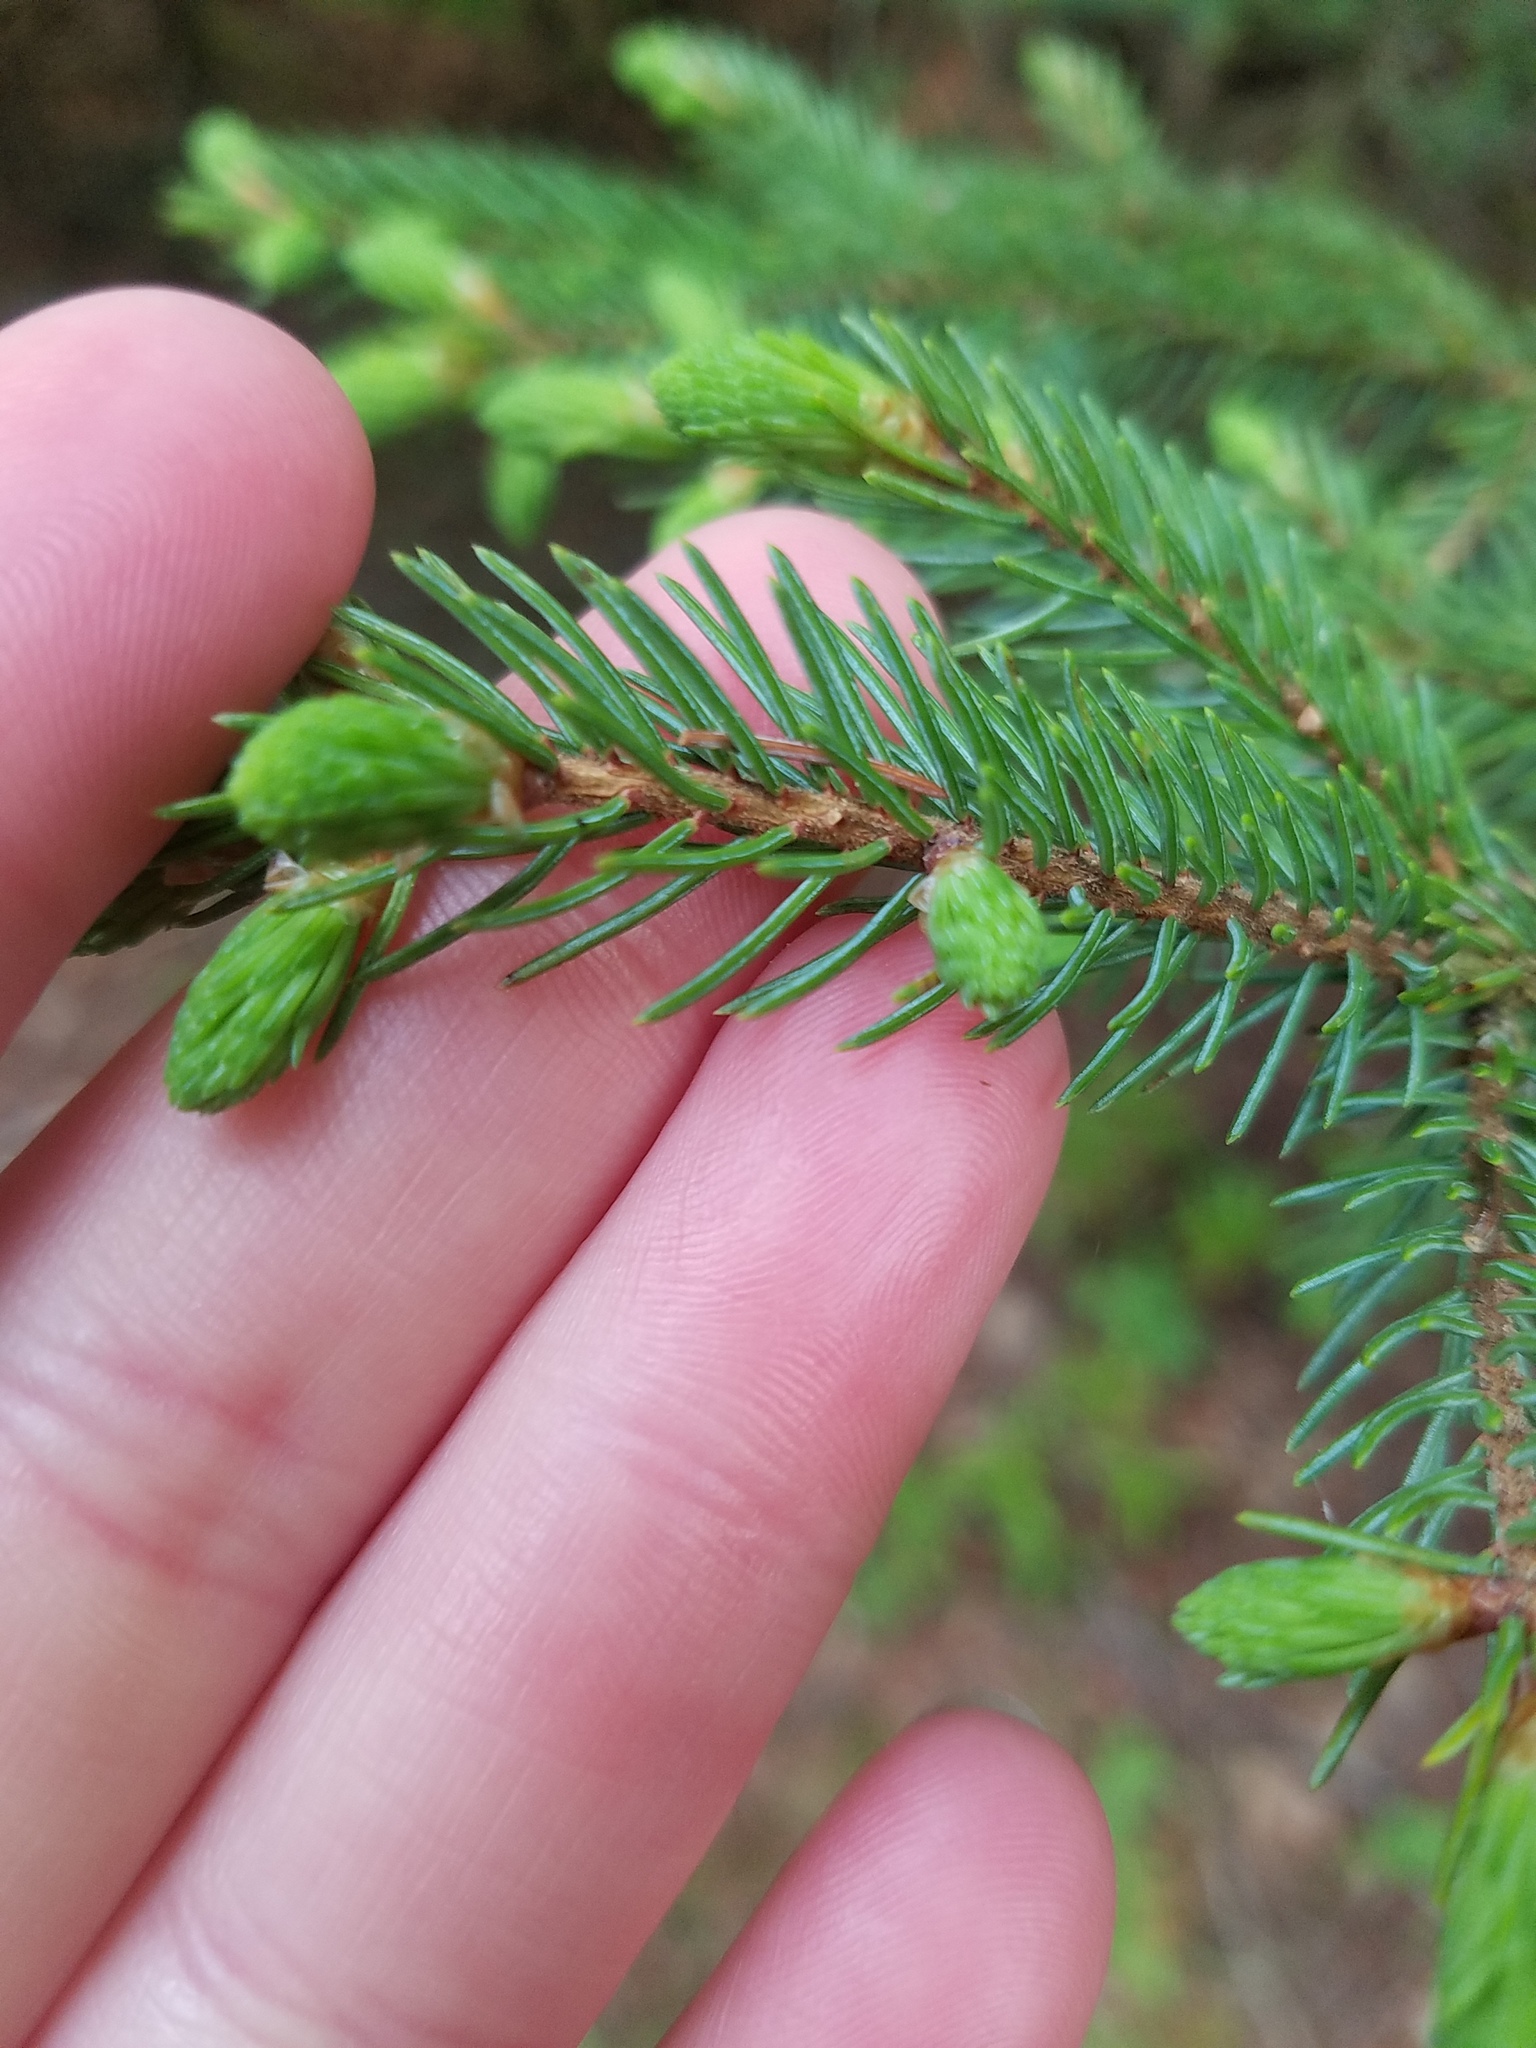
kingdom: Plantae
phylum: Tracheophyta
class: Pinopsida
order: Pinales
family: Pinaceae
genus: Picea
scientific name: Picea mariana
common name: Black spruce
